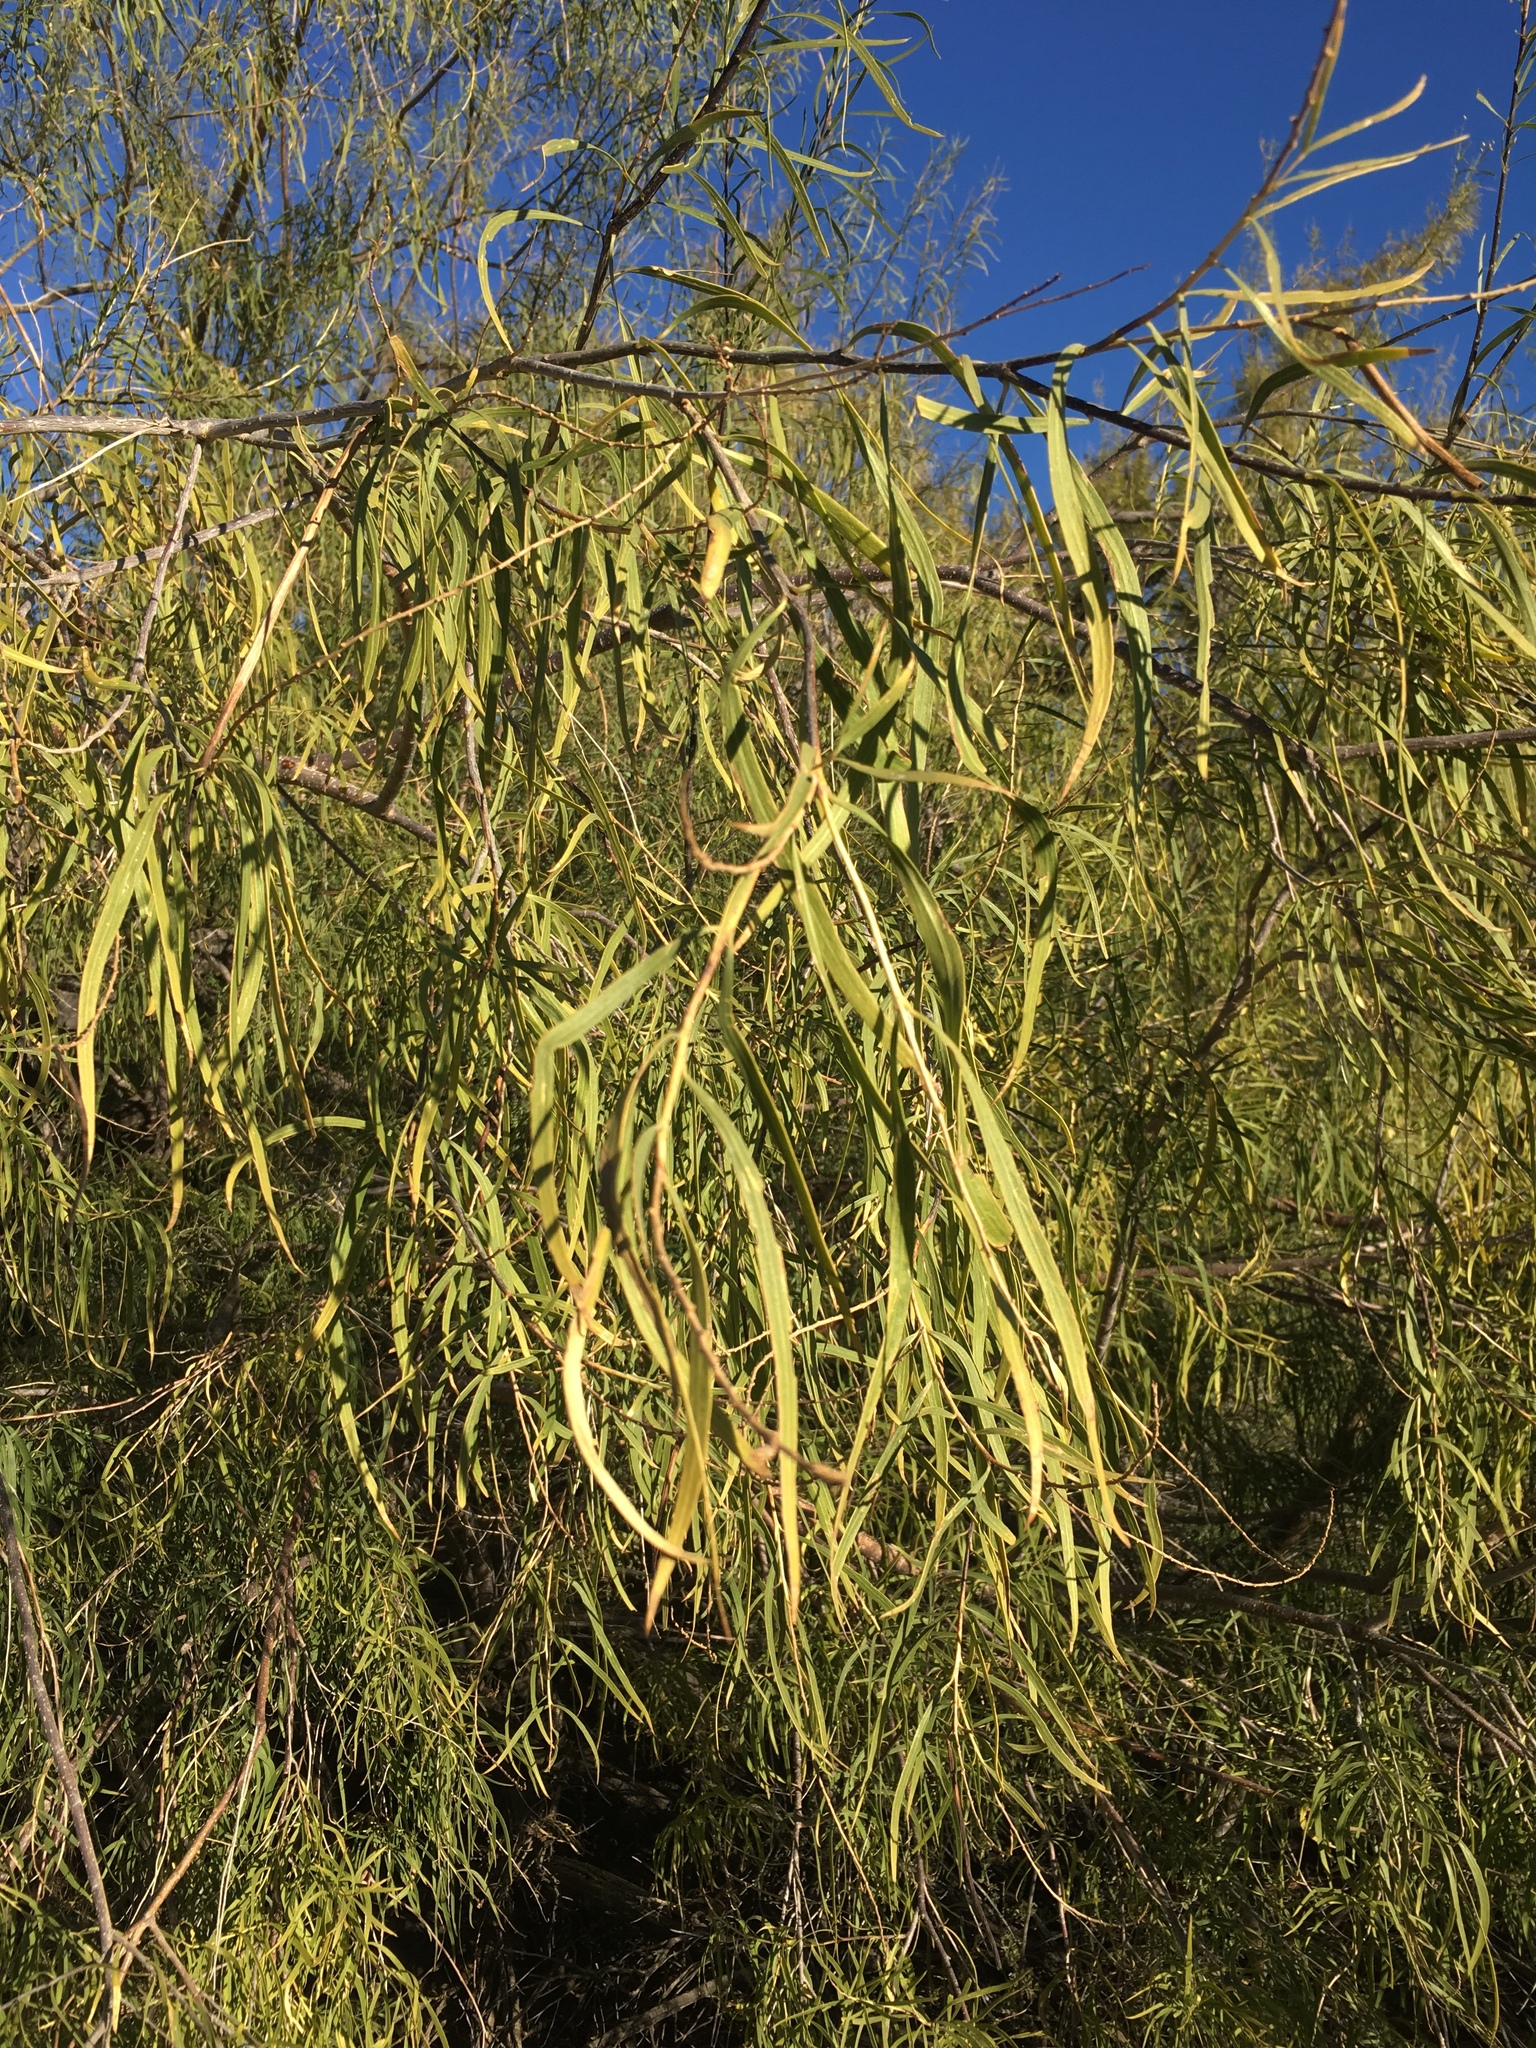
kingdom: Plantae
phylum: Tracheophyta
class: Magnoliopsida
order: Lamiales
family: Bignoniaceae
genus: Chilopsis
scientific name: Chilopsis linearis
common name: Desert-willow
